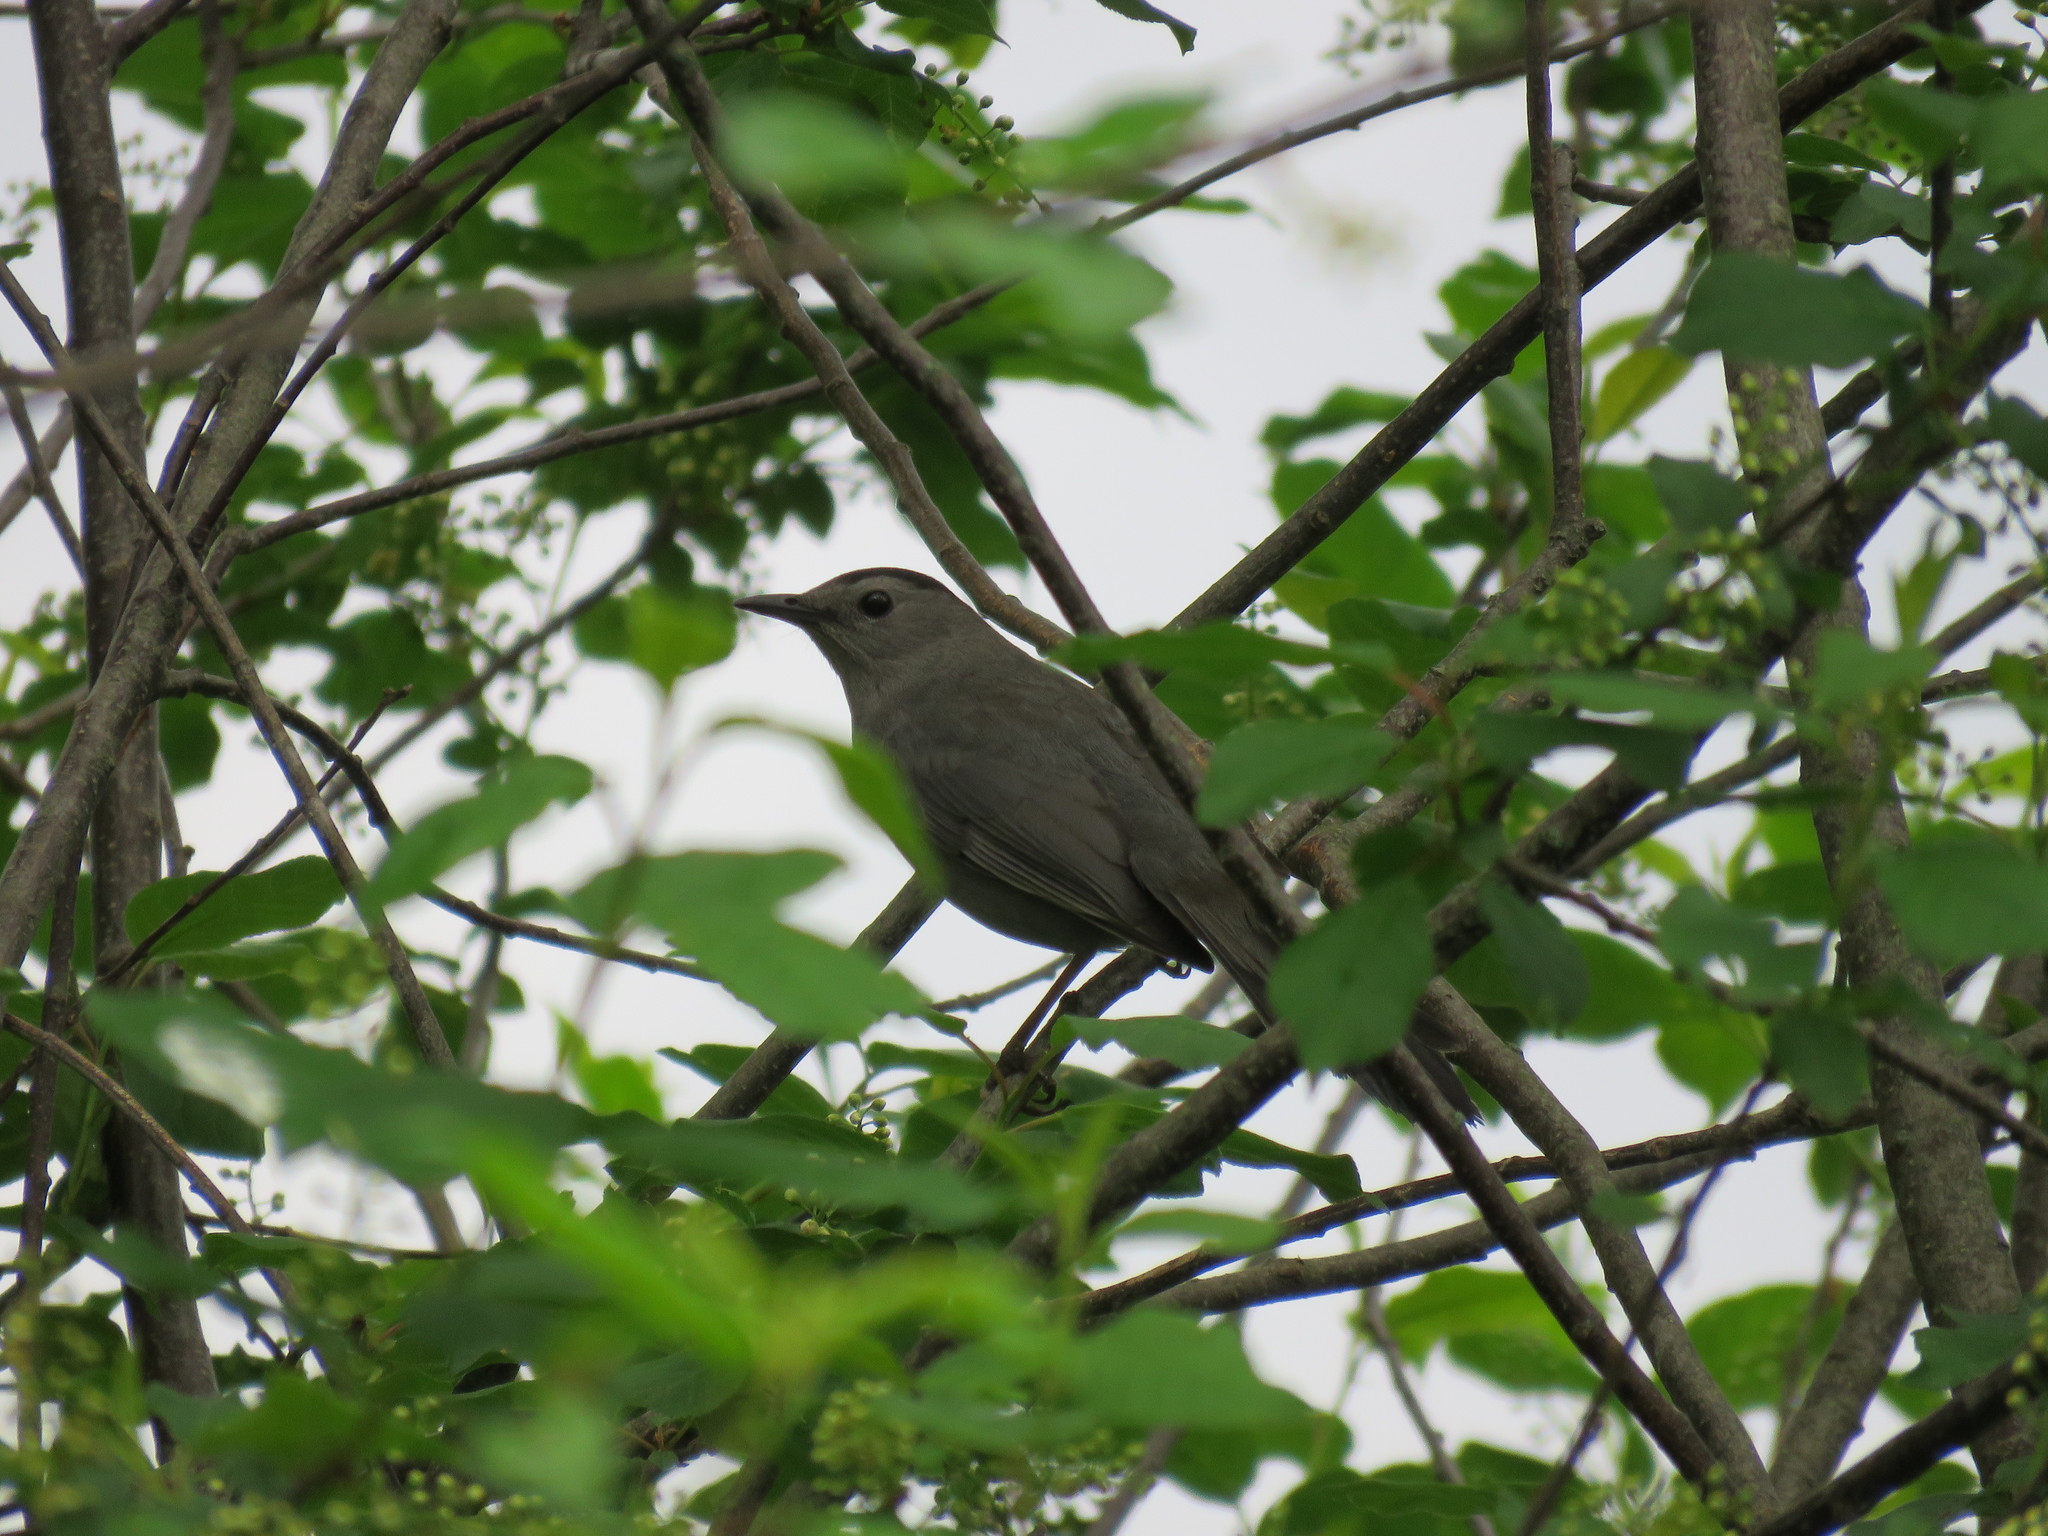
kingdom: Animalia
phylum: Chordata
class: Aves
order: Passeriformes
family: Mimidae
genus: Dumetella
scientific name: Dumetella carolinensis
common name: Gray catbird
